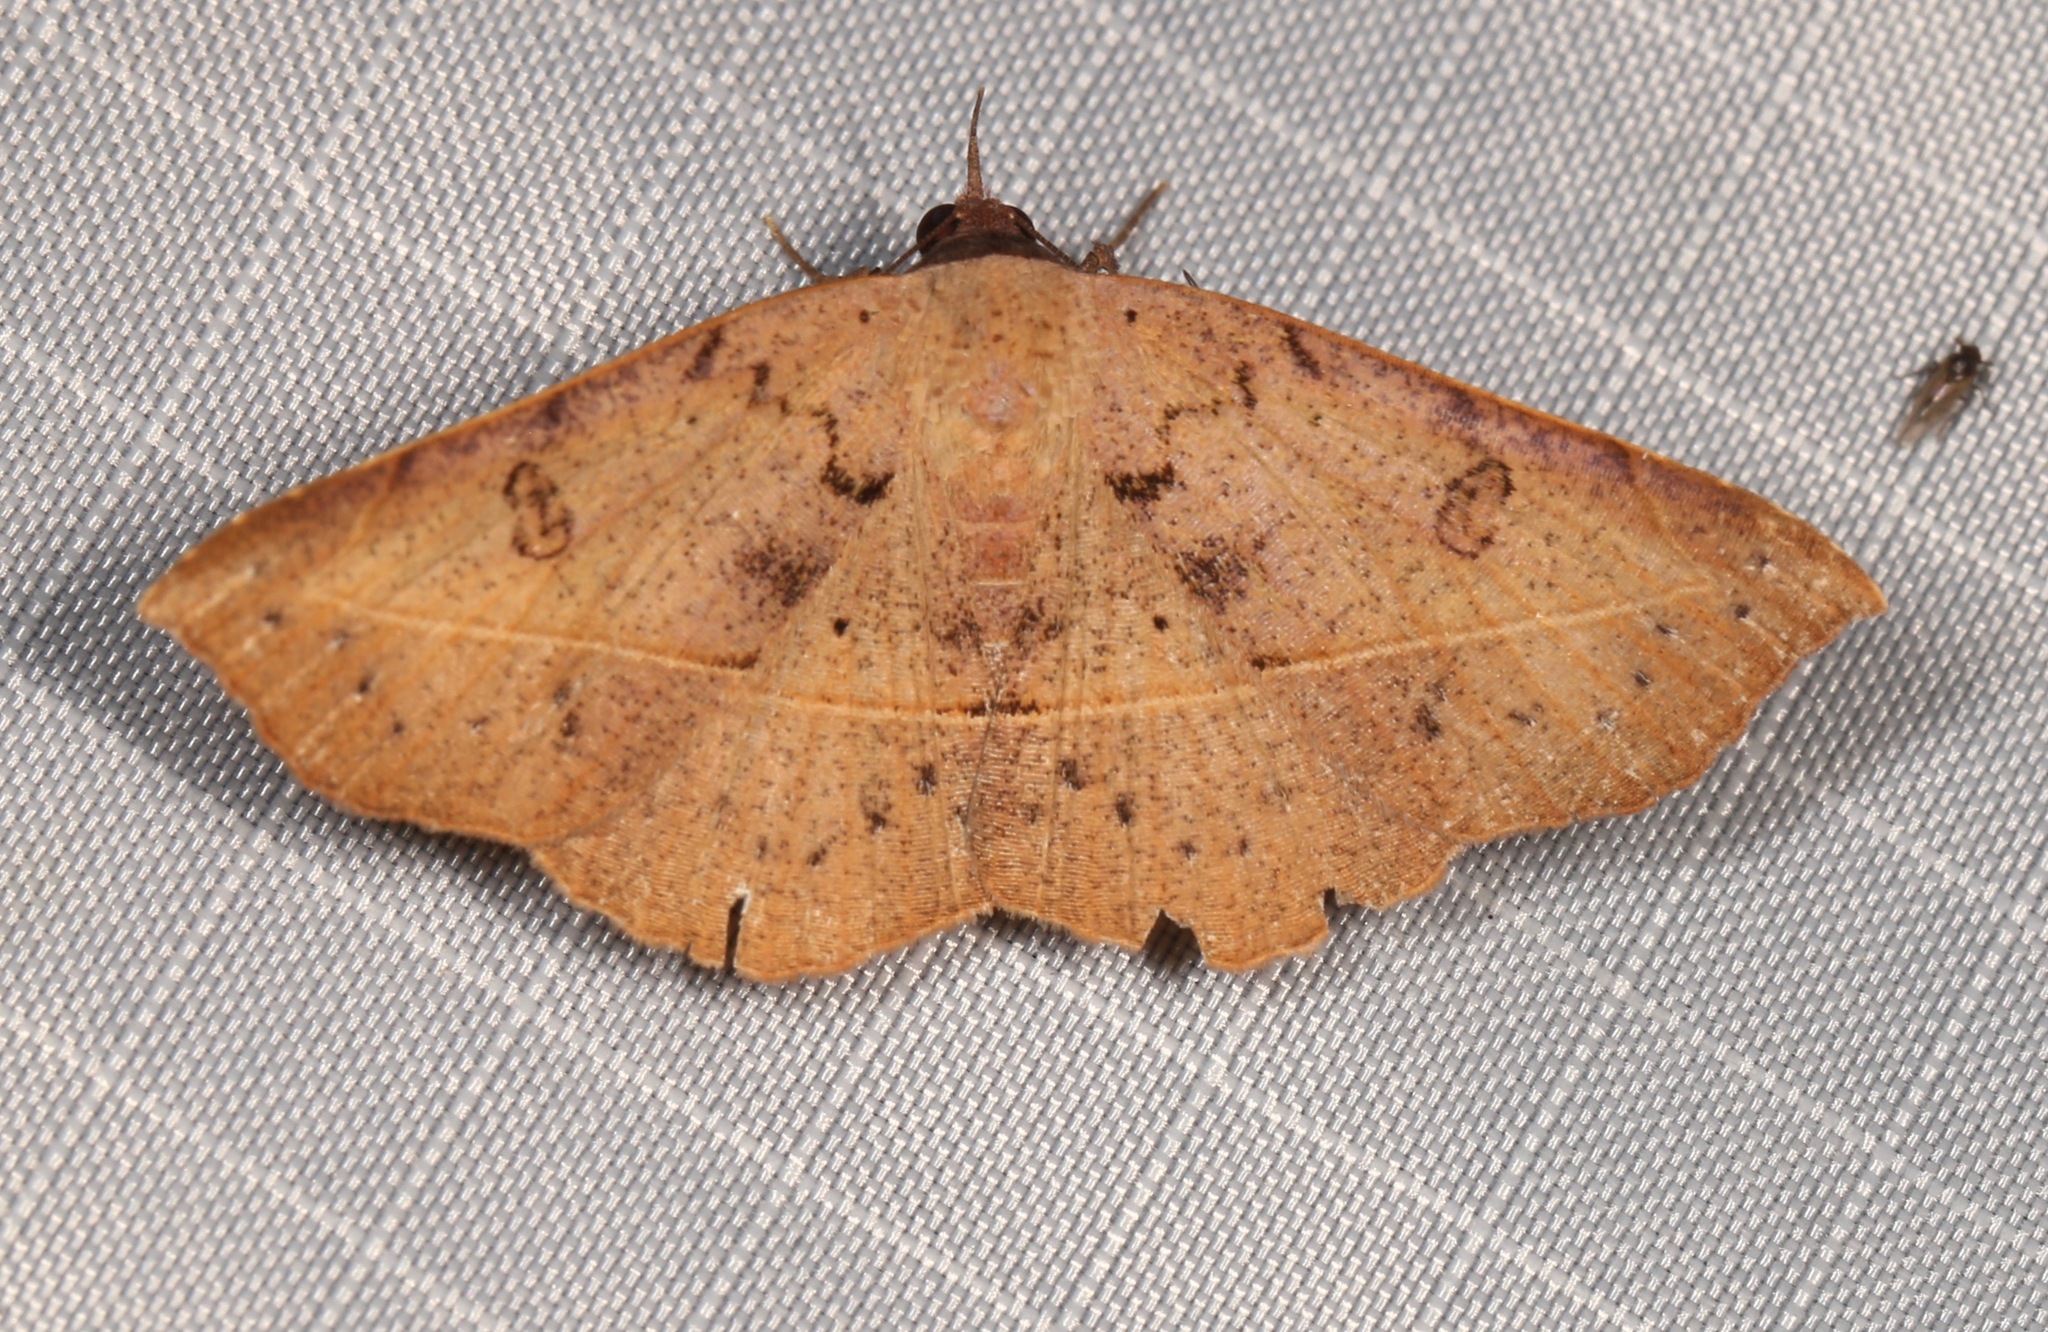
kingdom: Animalia
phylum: Arthropoda
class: Insecta
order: Lepidoptera
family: Erebidae
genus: Metallata
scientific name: Metallata absumens
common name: Brown leaf mimic
